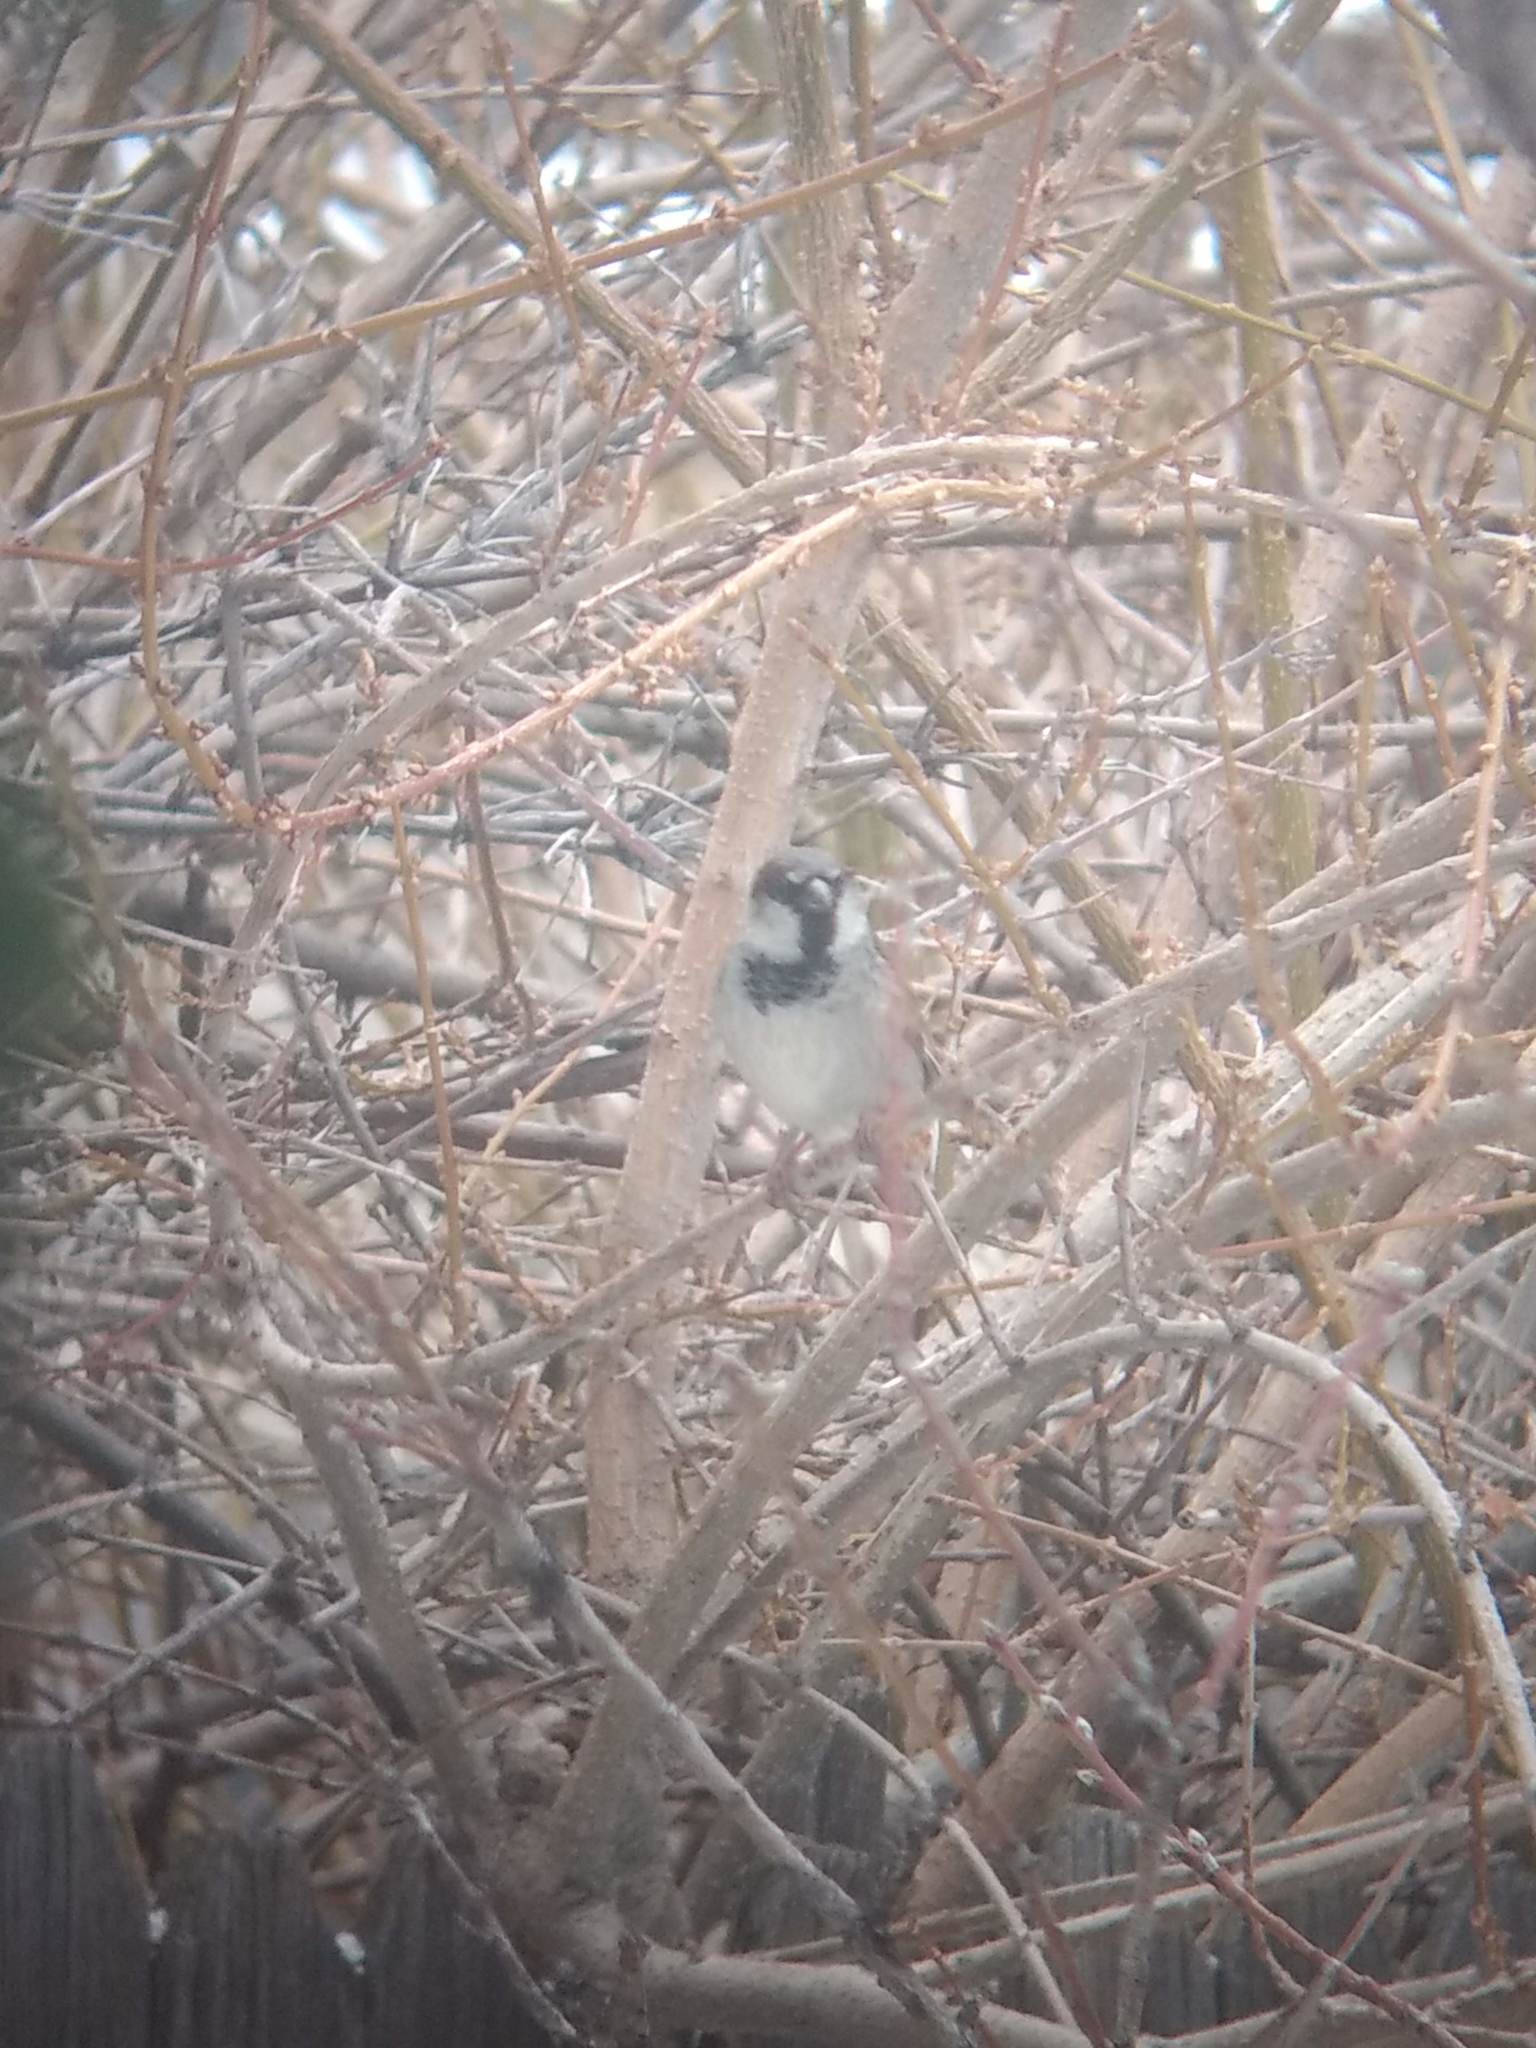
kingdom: Animalia
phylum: Chordata
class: Aves
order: Passeriformes
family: Passeridae
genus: Passer
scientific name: Passer domesticus
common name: House sparrow
